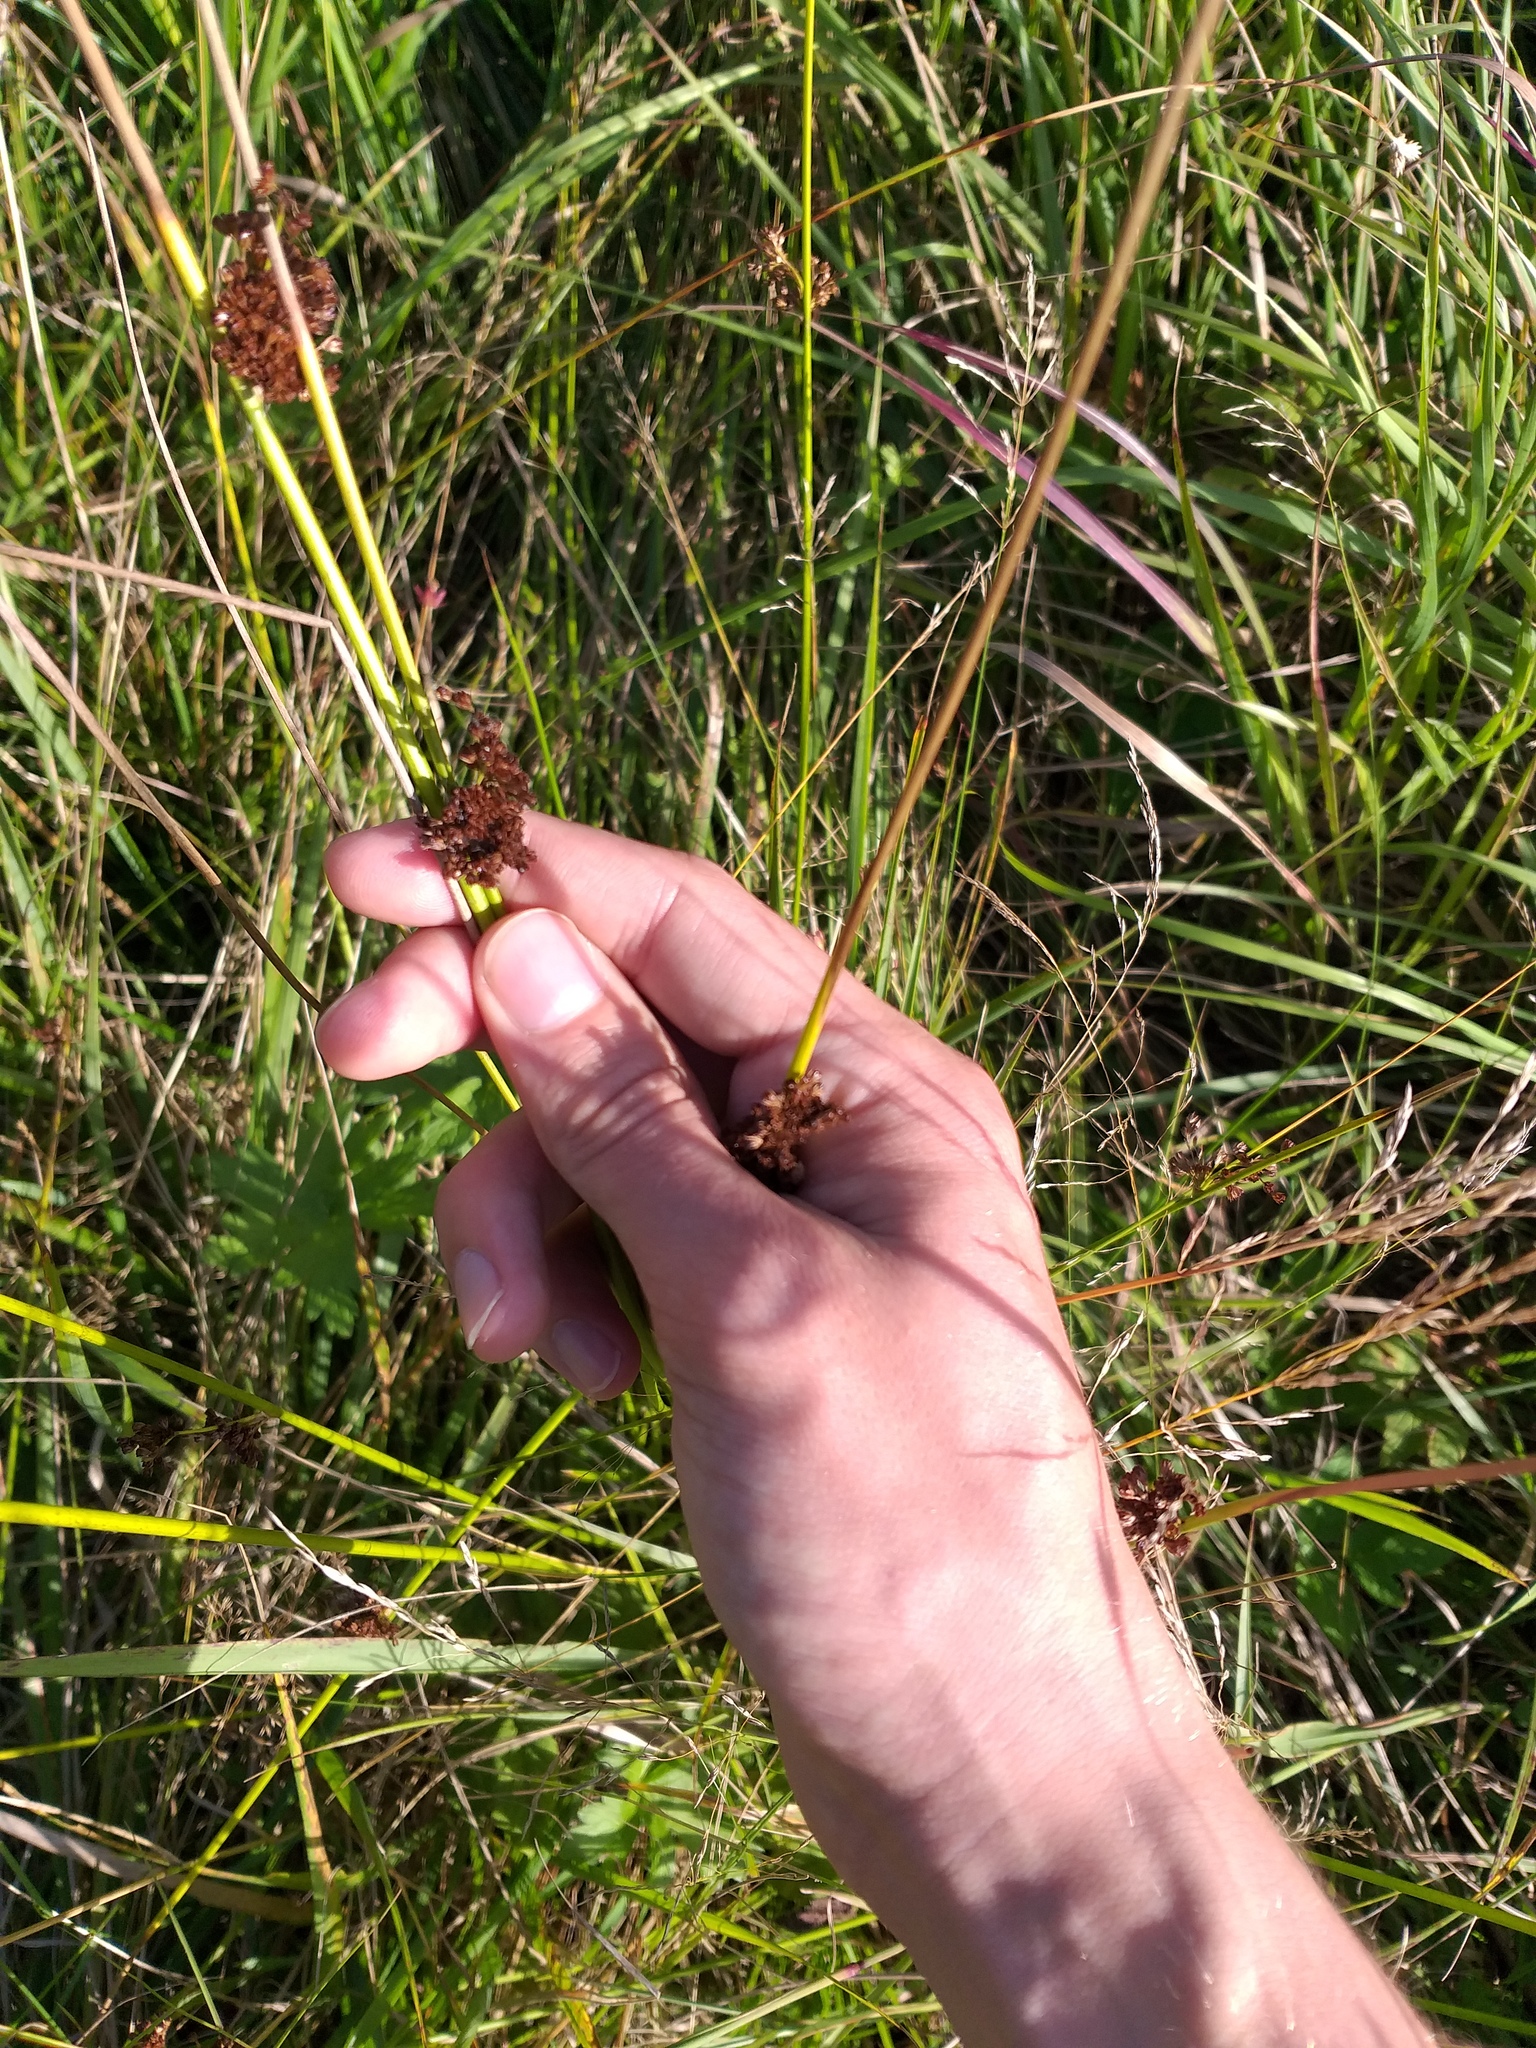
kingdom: Plantae
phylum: Tracheophyta
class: Liliopsida
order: Poales
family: Juncaceae
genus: Juncus
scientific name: Juncus effusus
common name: Soft rush
